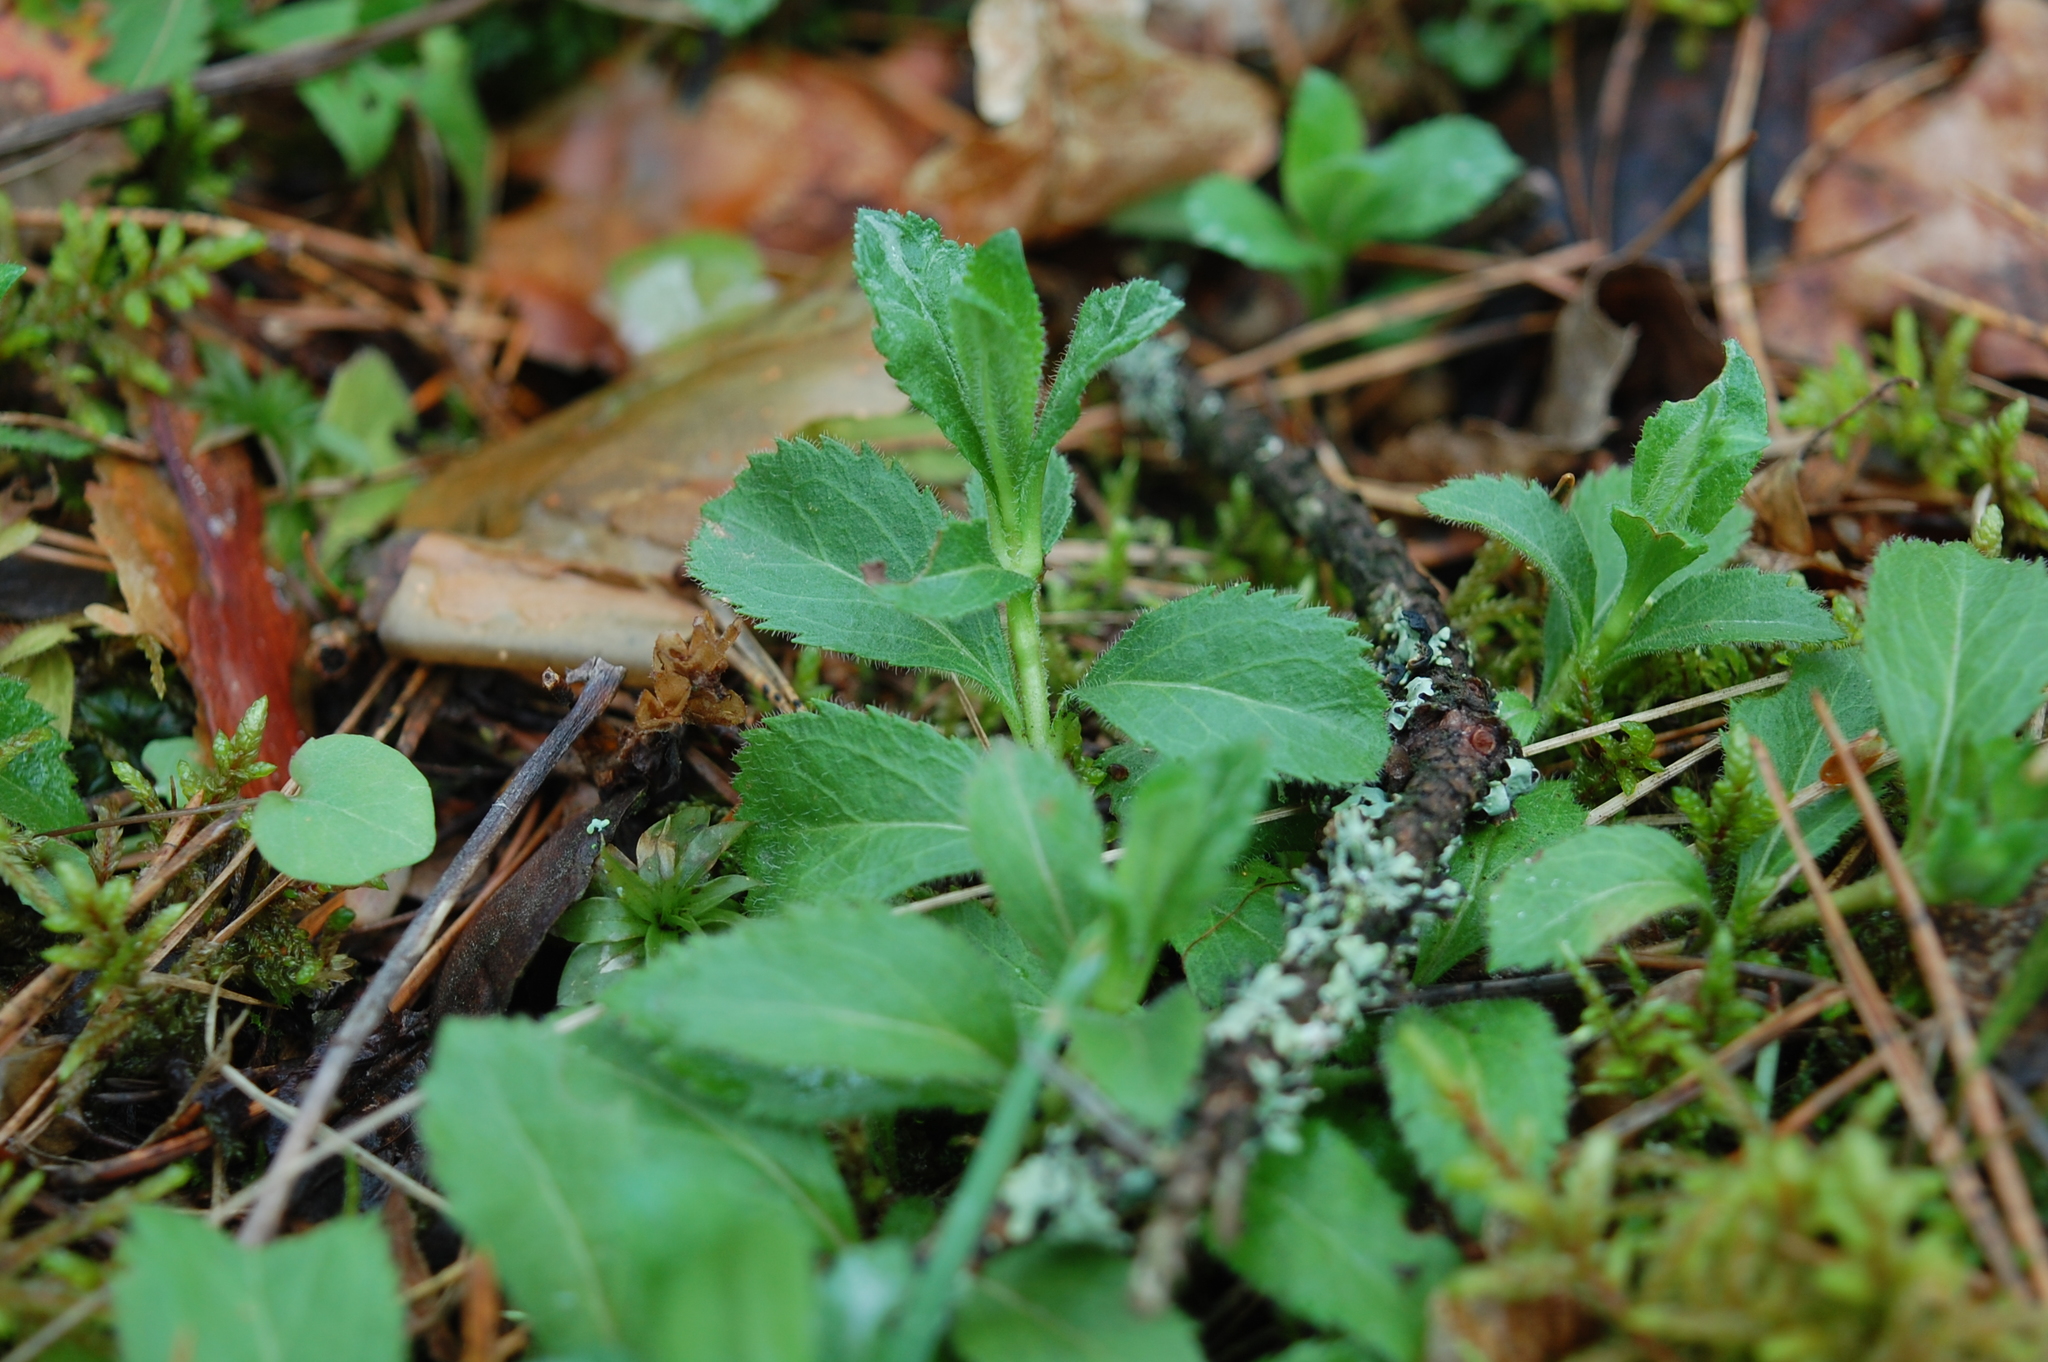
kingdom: Plantae
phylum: Tracheophyta
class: Magnoliopsida
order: Lamiales
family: Plantaginaceae
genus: Veronica
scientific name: Veronica officinalis
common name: Common speedwell
